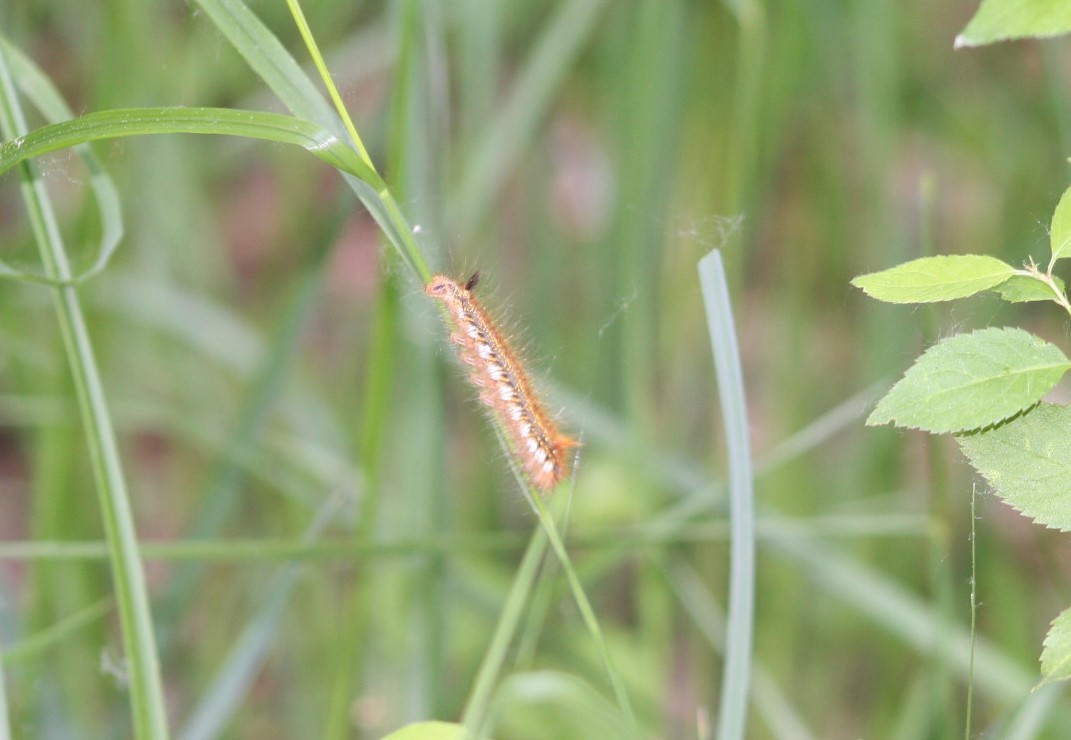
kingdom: Animalia
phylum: Arthropoda
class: Insecta
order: Lepidoptera
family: Lasiocampidae
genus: Euthrix
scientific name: Euthrix potatoria
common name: Drinker
